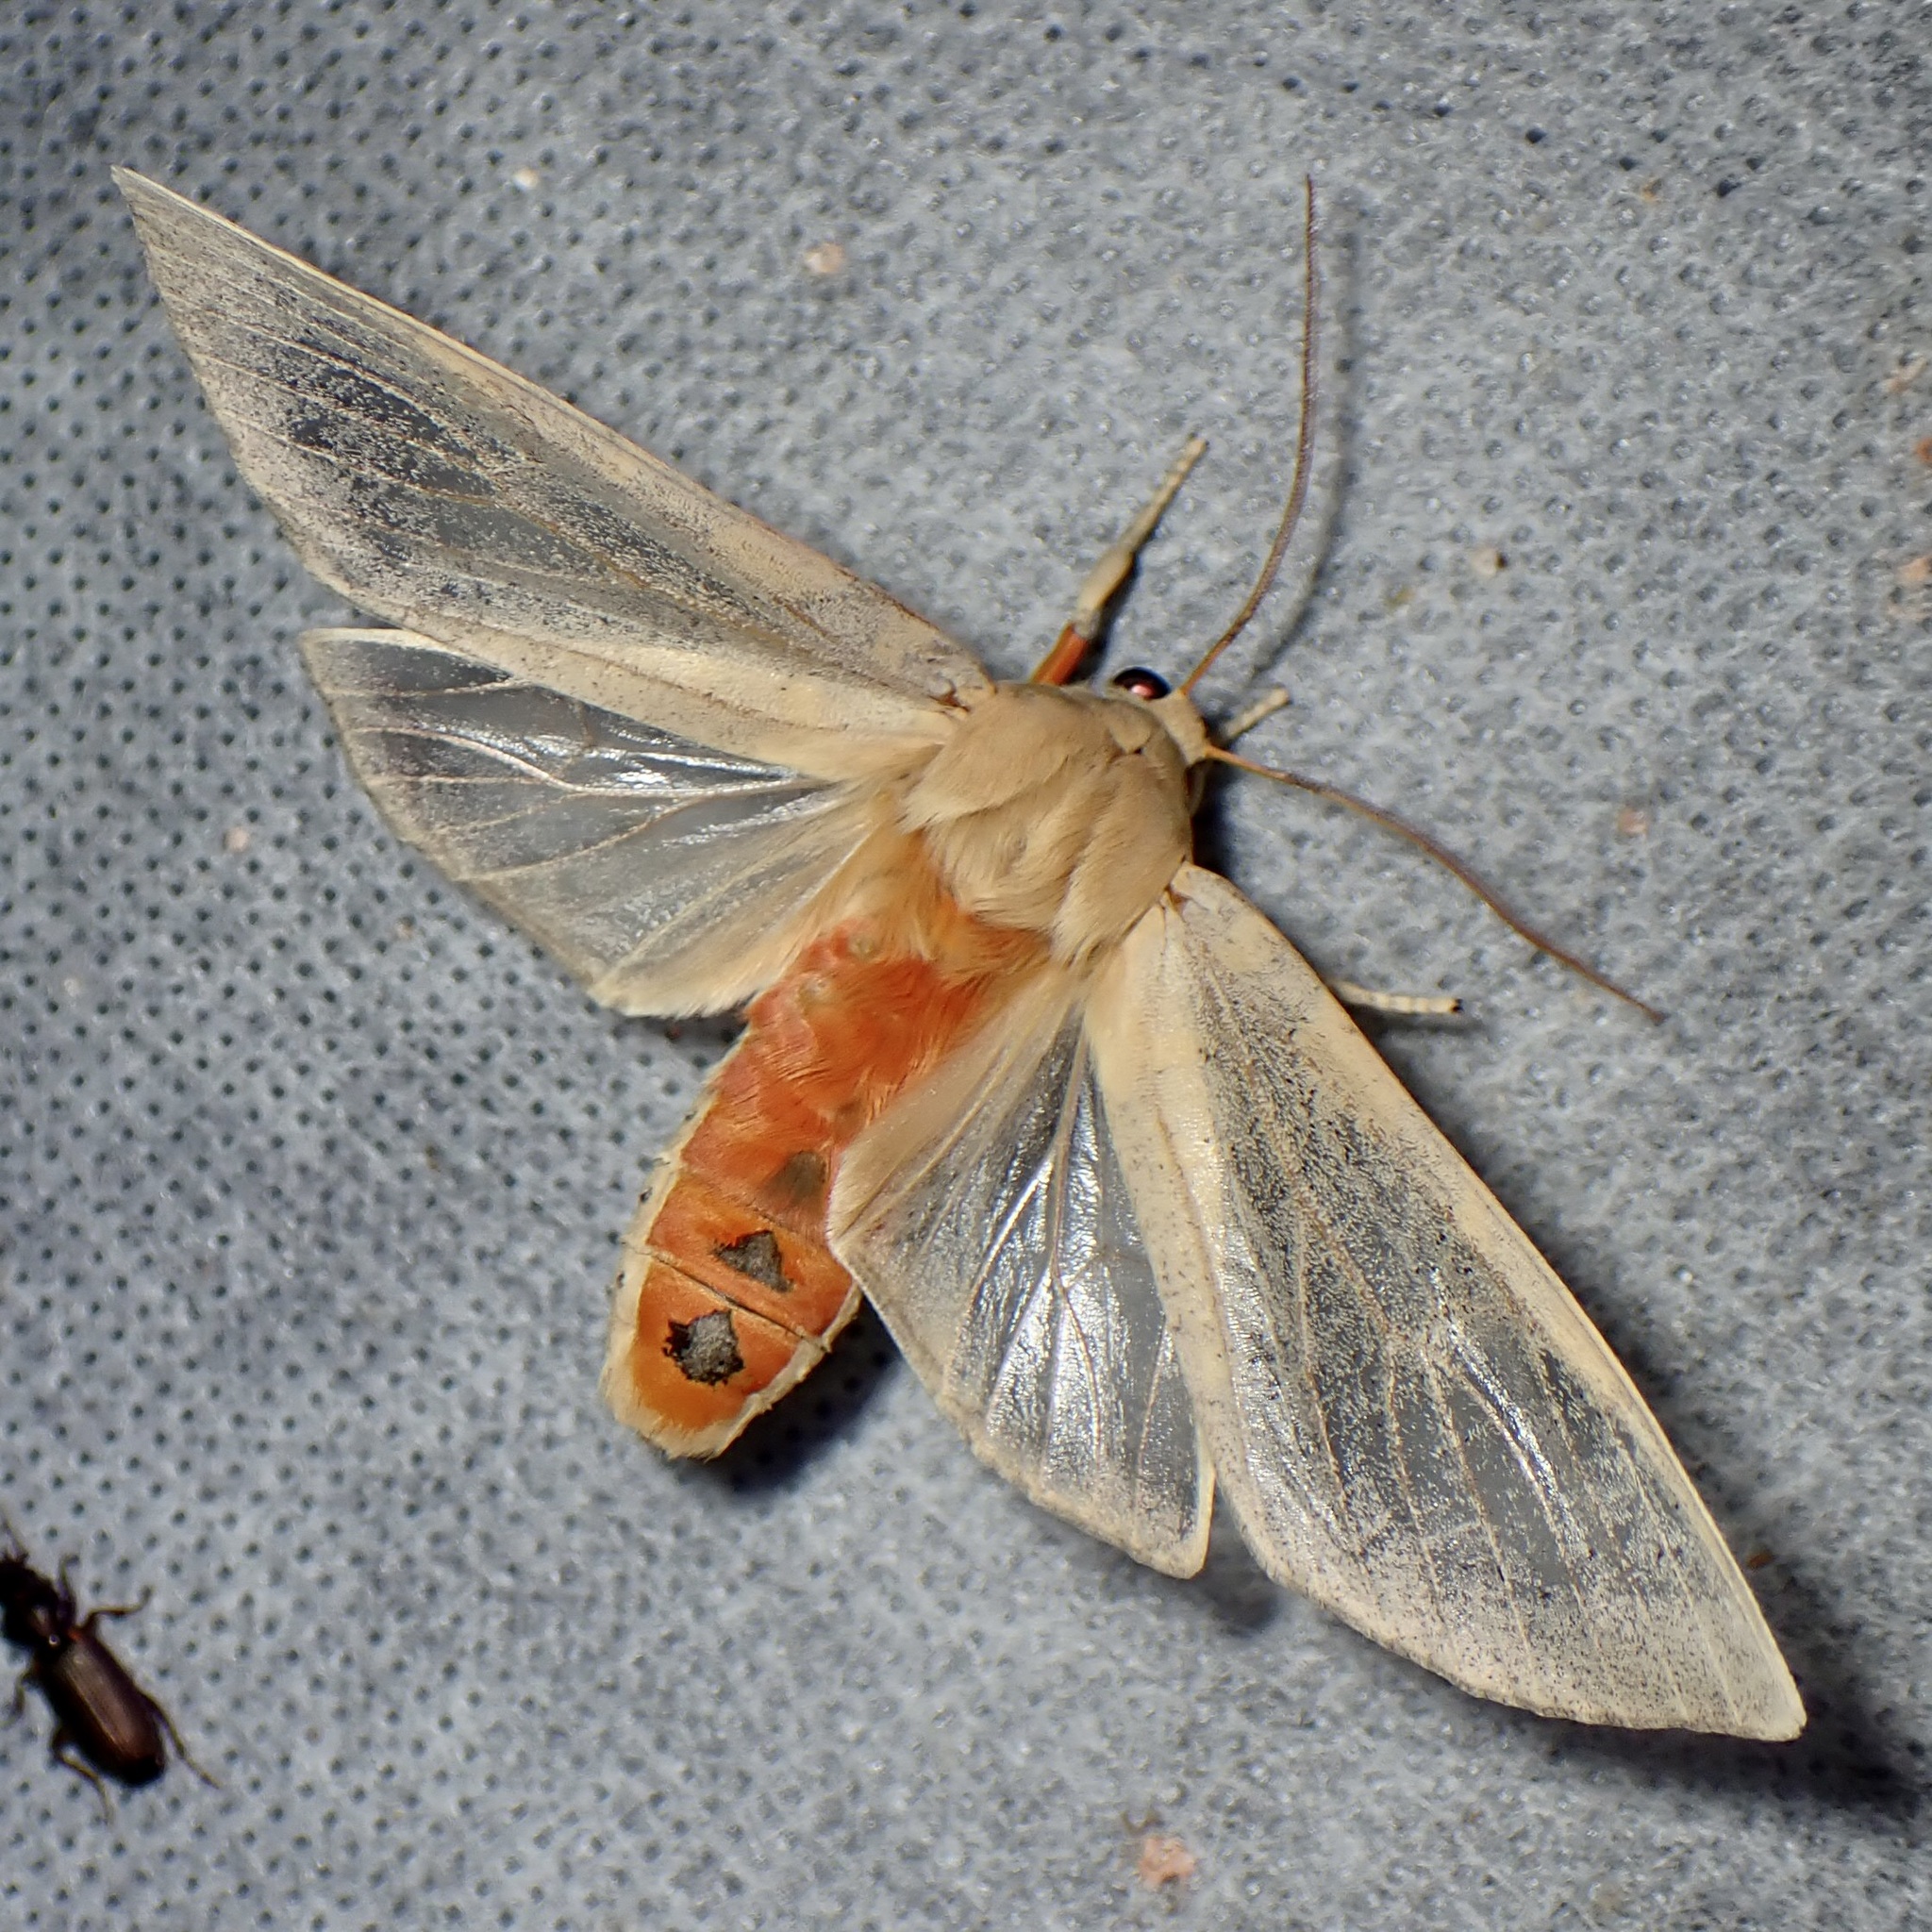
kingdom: Animalia
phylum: Arthropoda
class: Insecta
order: Lepidoptera
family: Erebidae
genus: Hemihyalea
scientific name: Hemihyalea edwardsii
